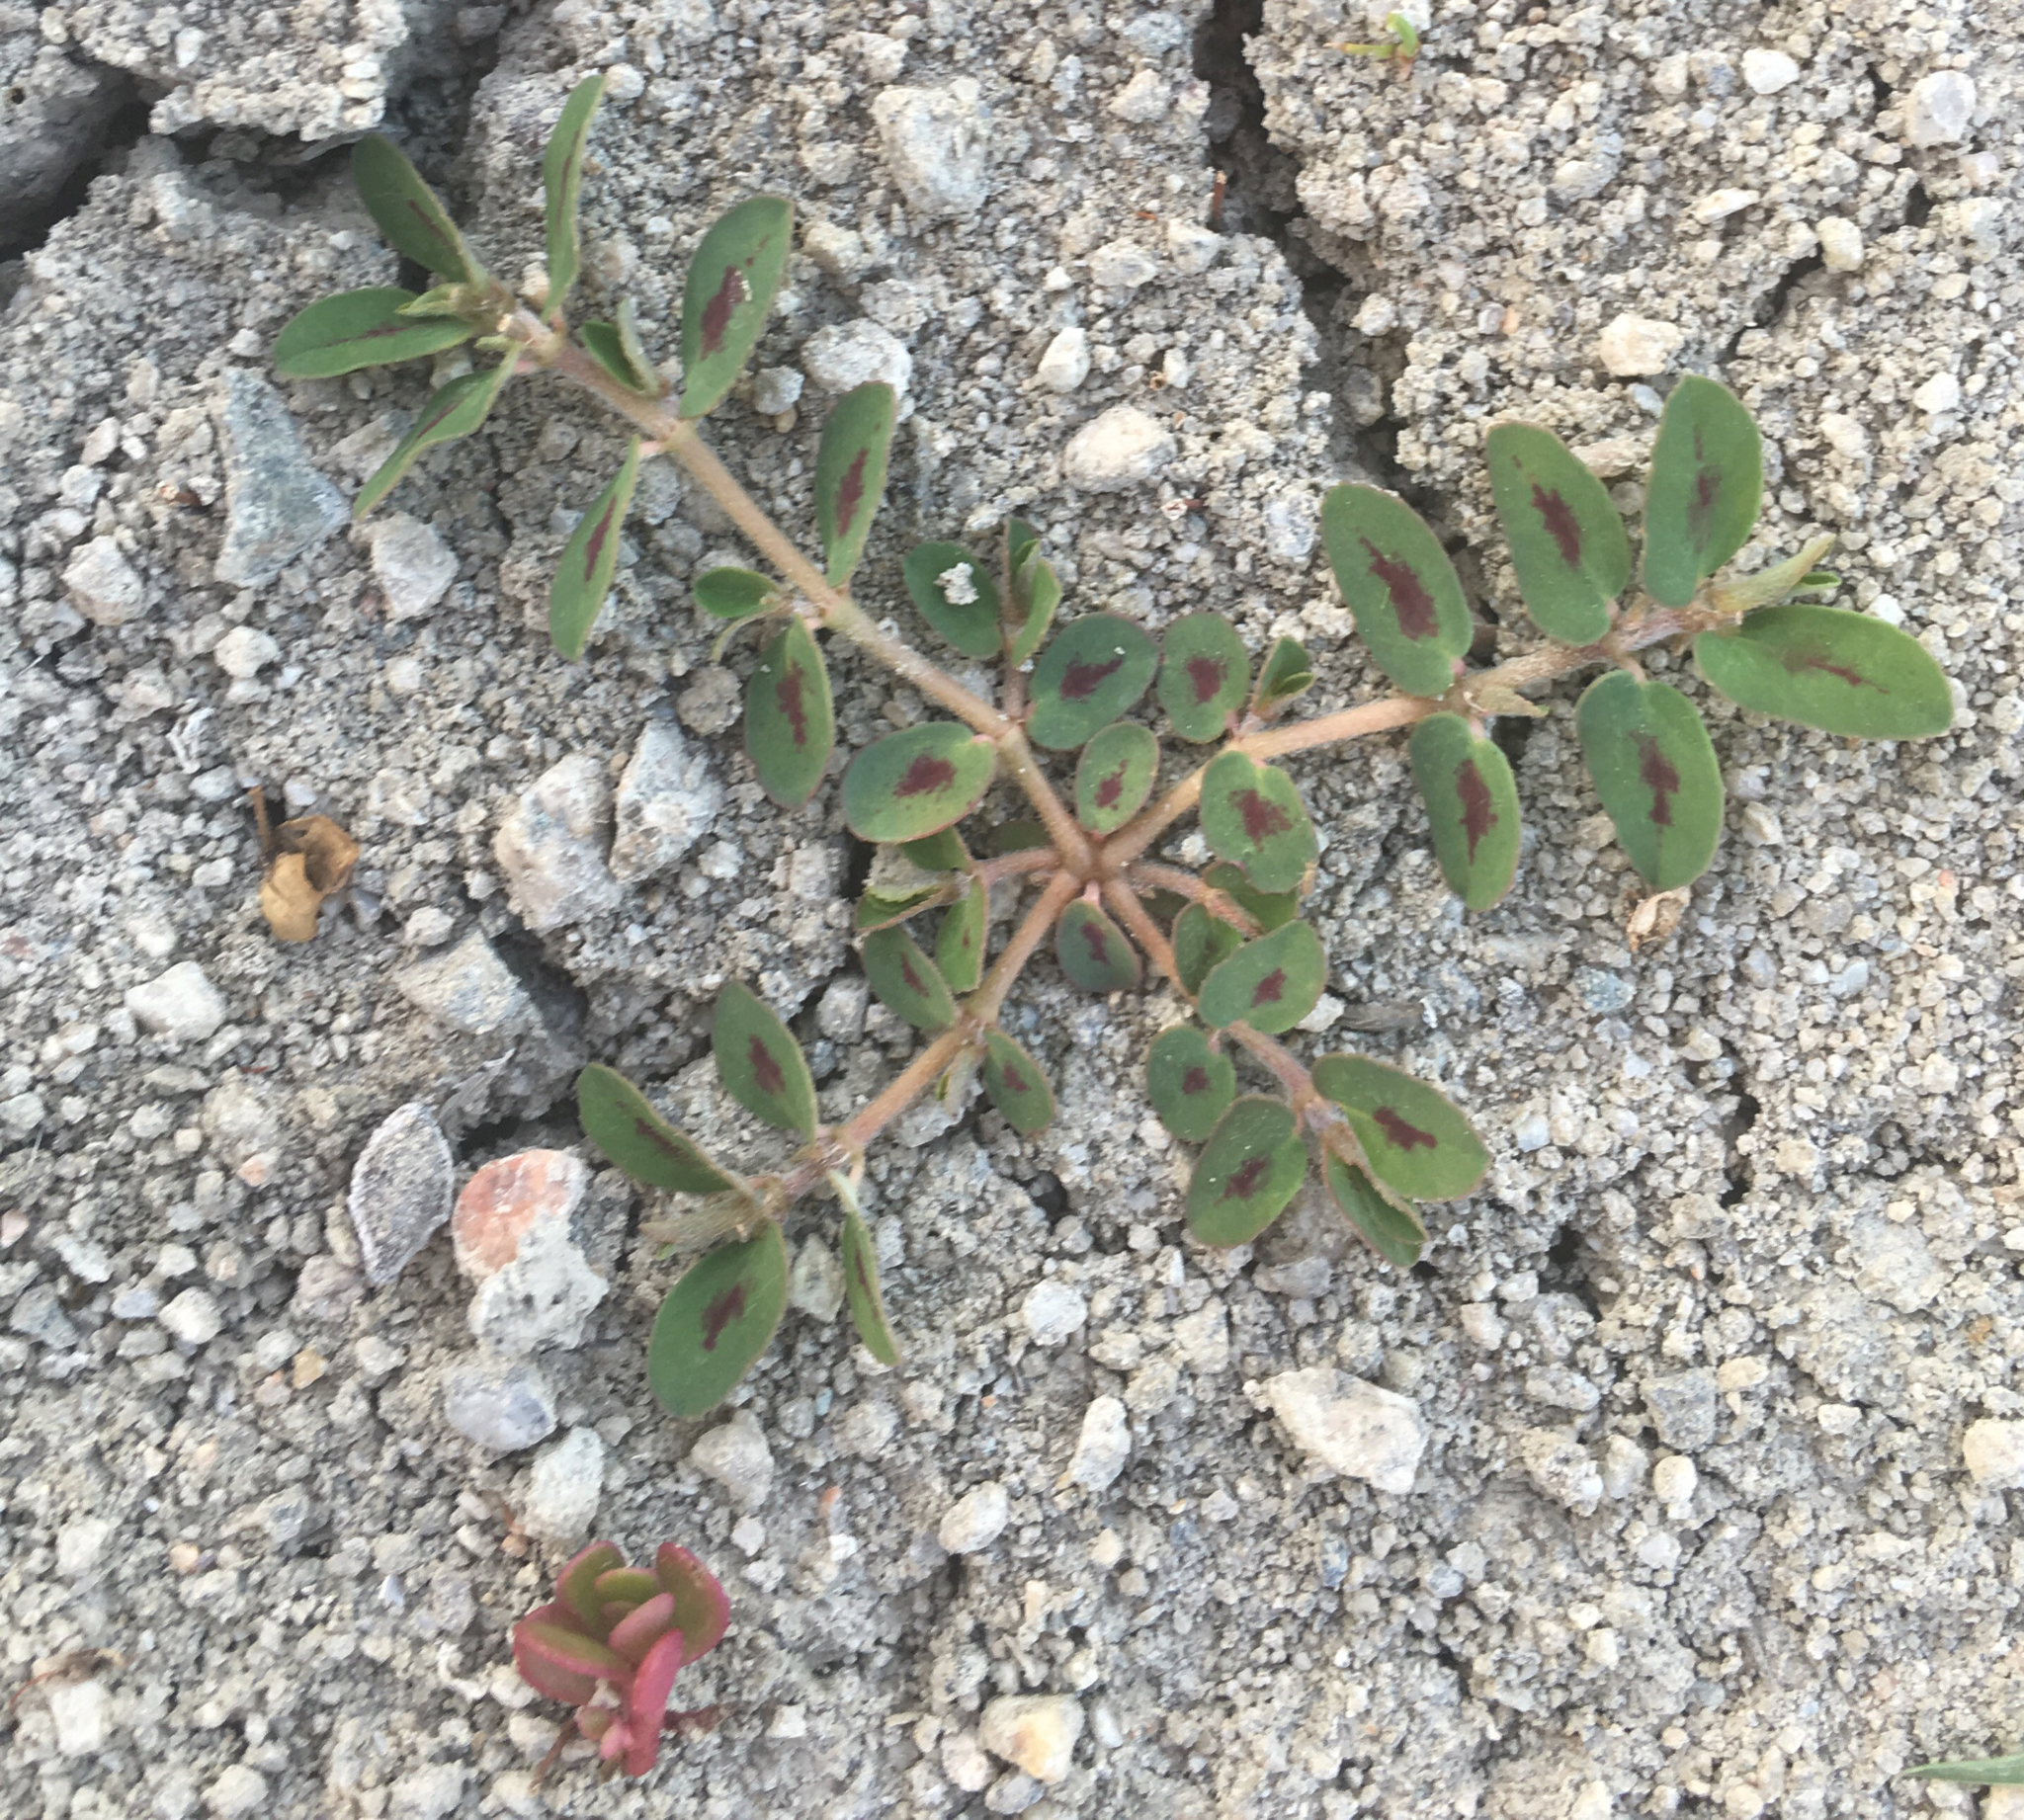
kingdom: Plantae
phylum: Tracheophyta
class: Magnoliopsida
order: Malpighiales
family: Euphorbiaceae
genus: Euphorbia
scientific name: Euphorbia maculata
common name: Spotted spurge
